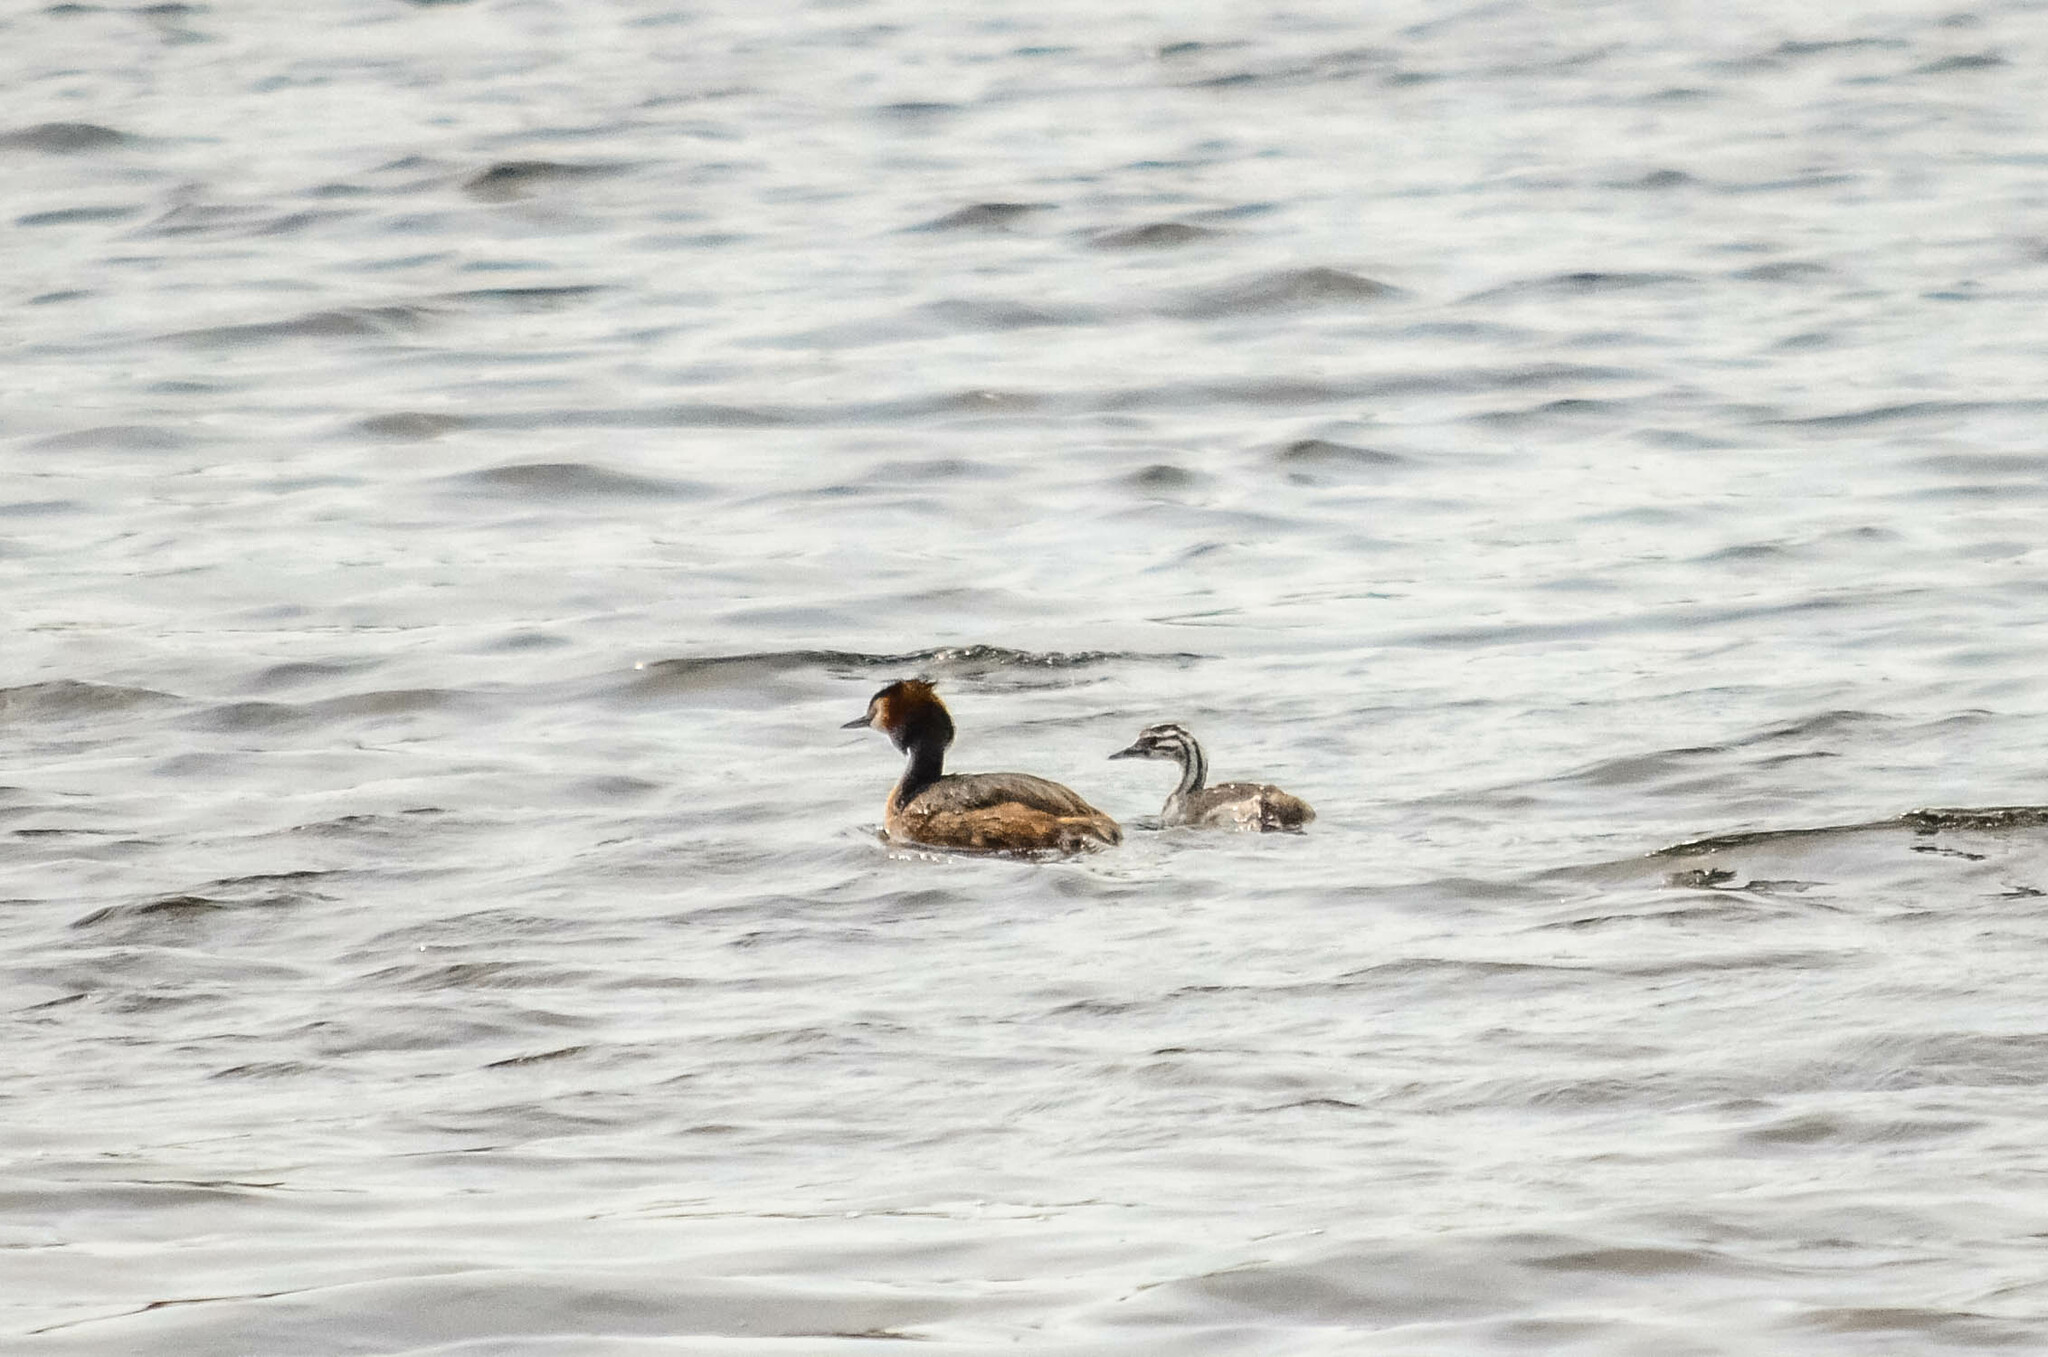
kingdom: Animalia
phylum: Chordata
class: Aves
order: Podicipediformes
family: Podicipedidae
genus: Podiceps
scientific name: Podiceps cristatus
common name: Great crested grebe
